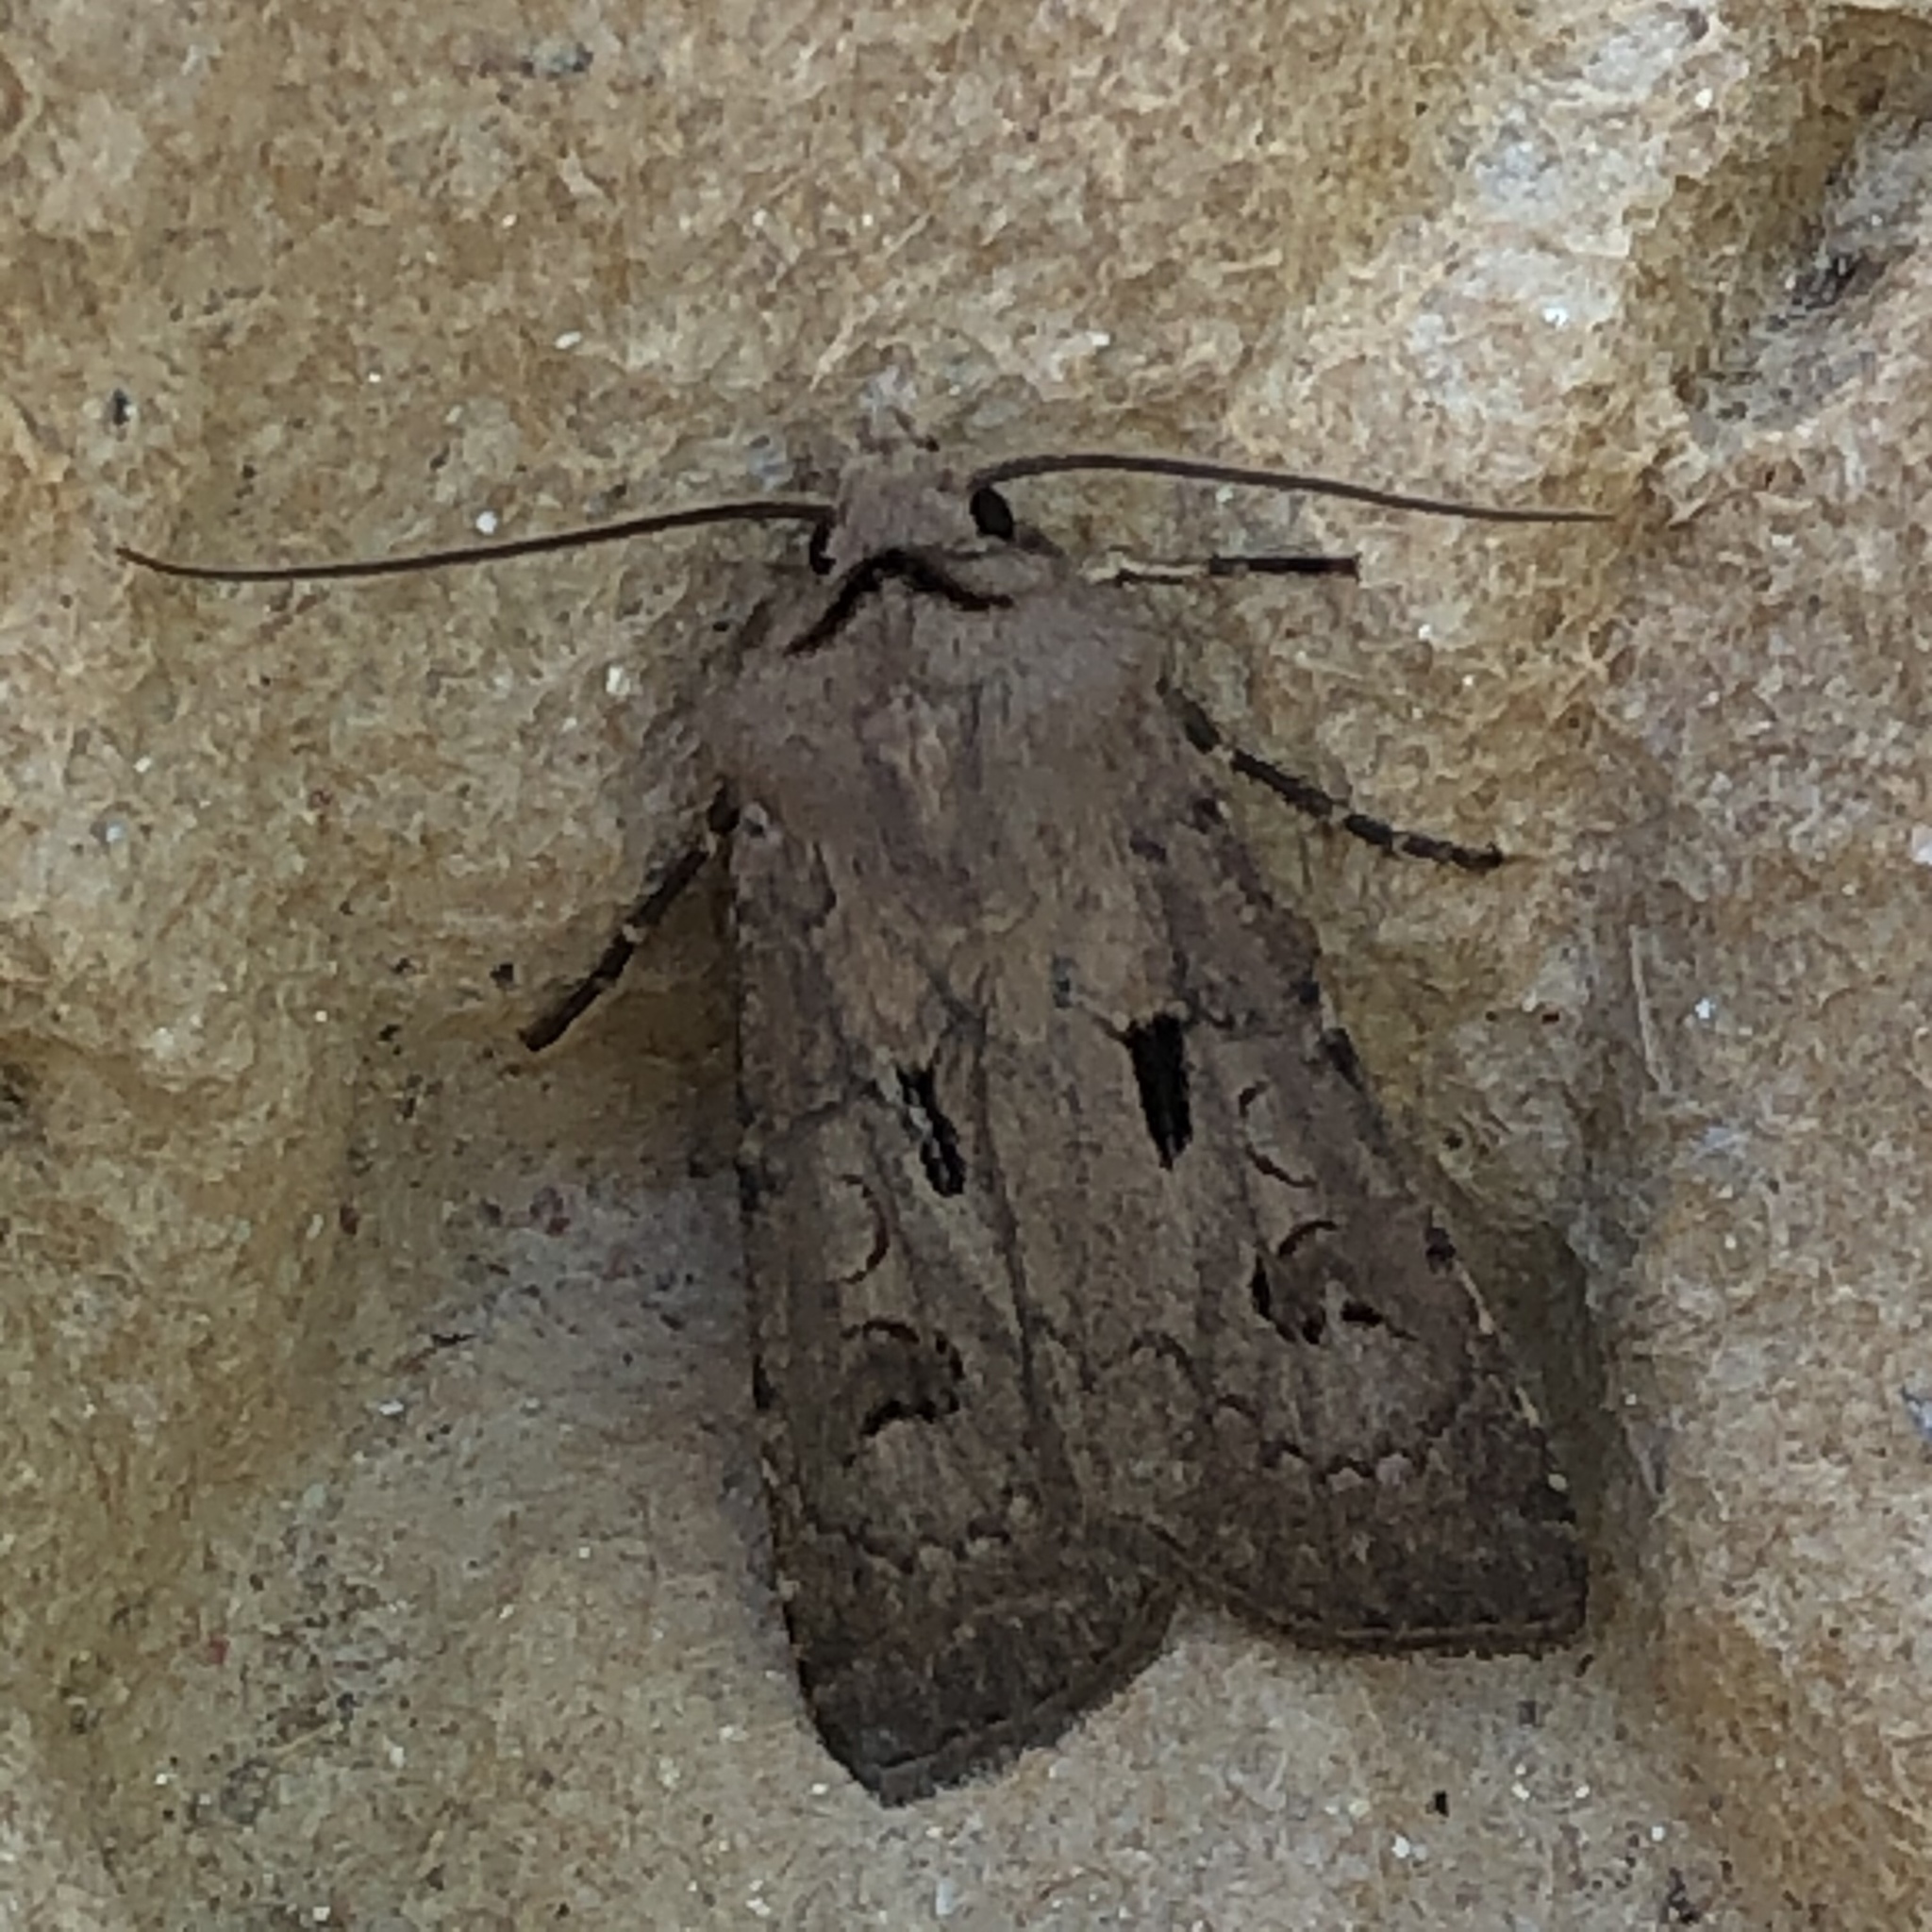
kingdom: Animalia
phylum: Arthropoda
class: Insecta
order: Lepidoptera
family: Noctuidae
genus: Agrotis
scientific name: Agrotis exclamationis
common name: Heart and dart
